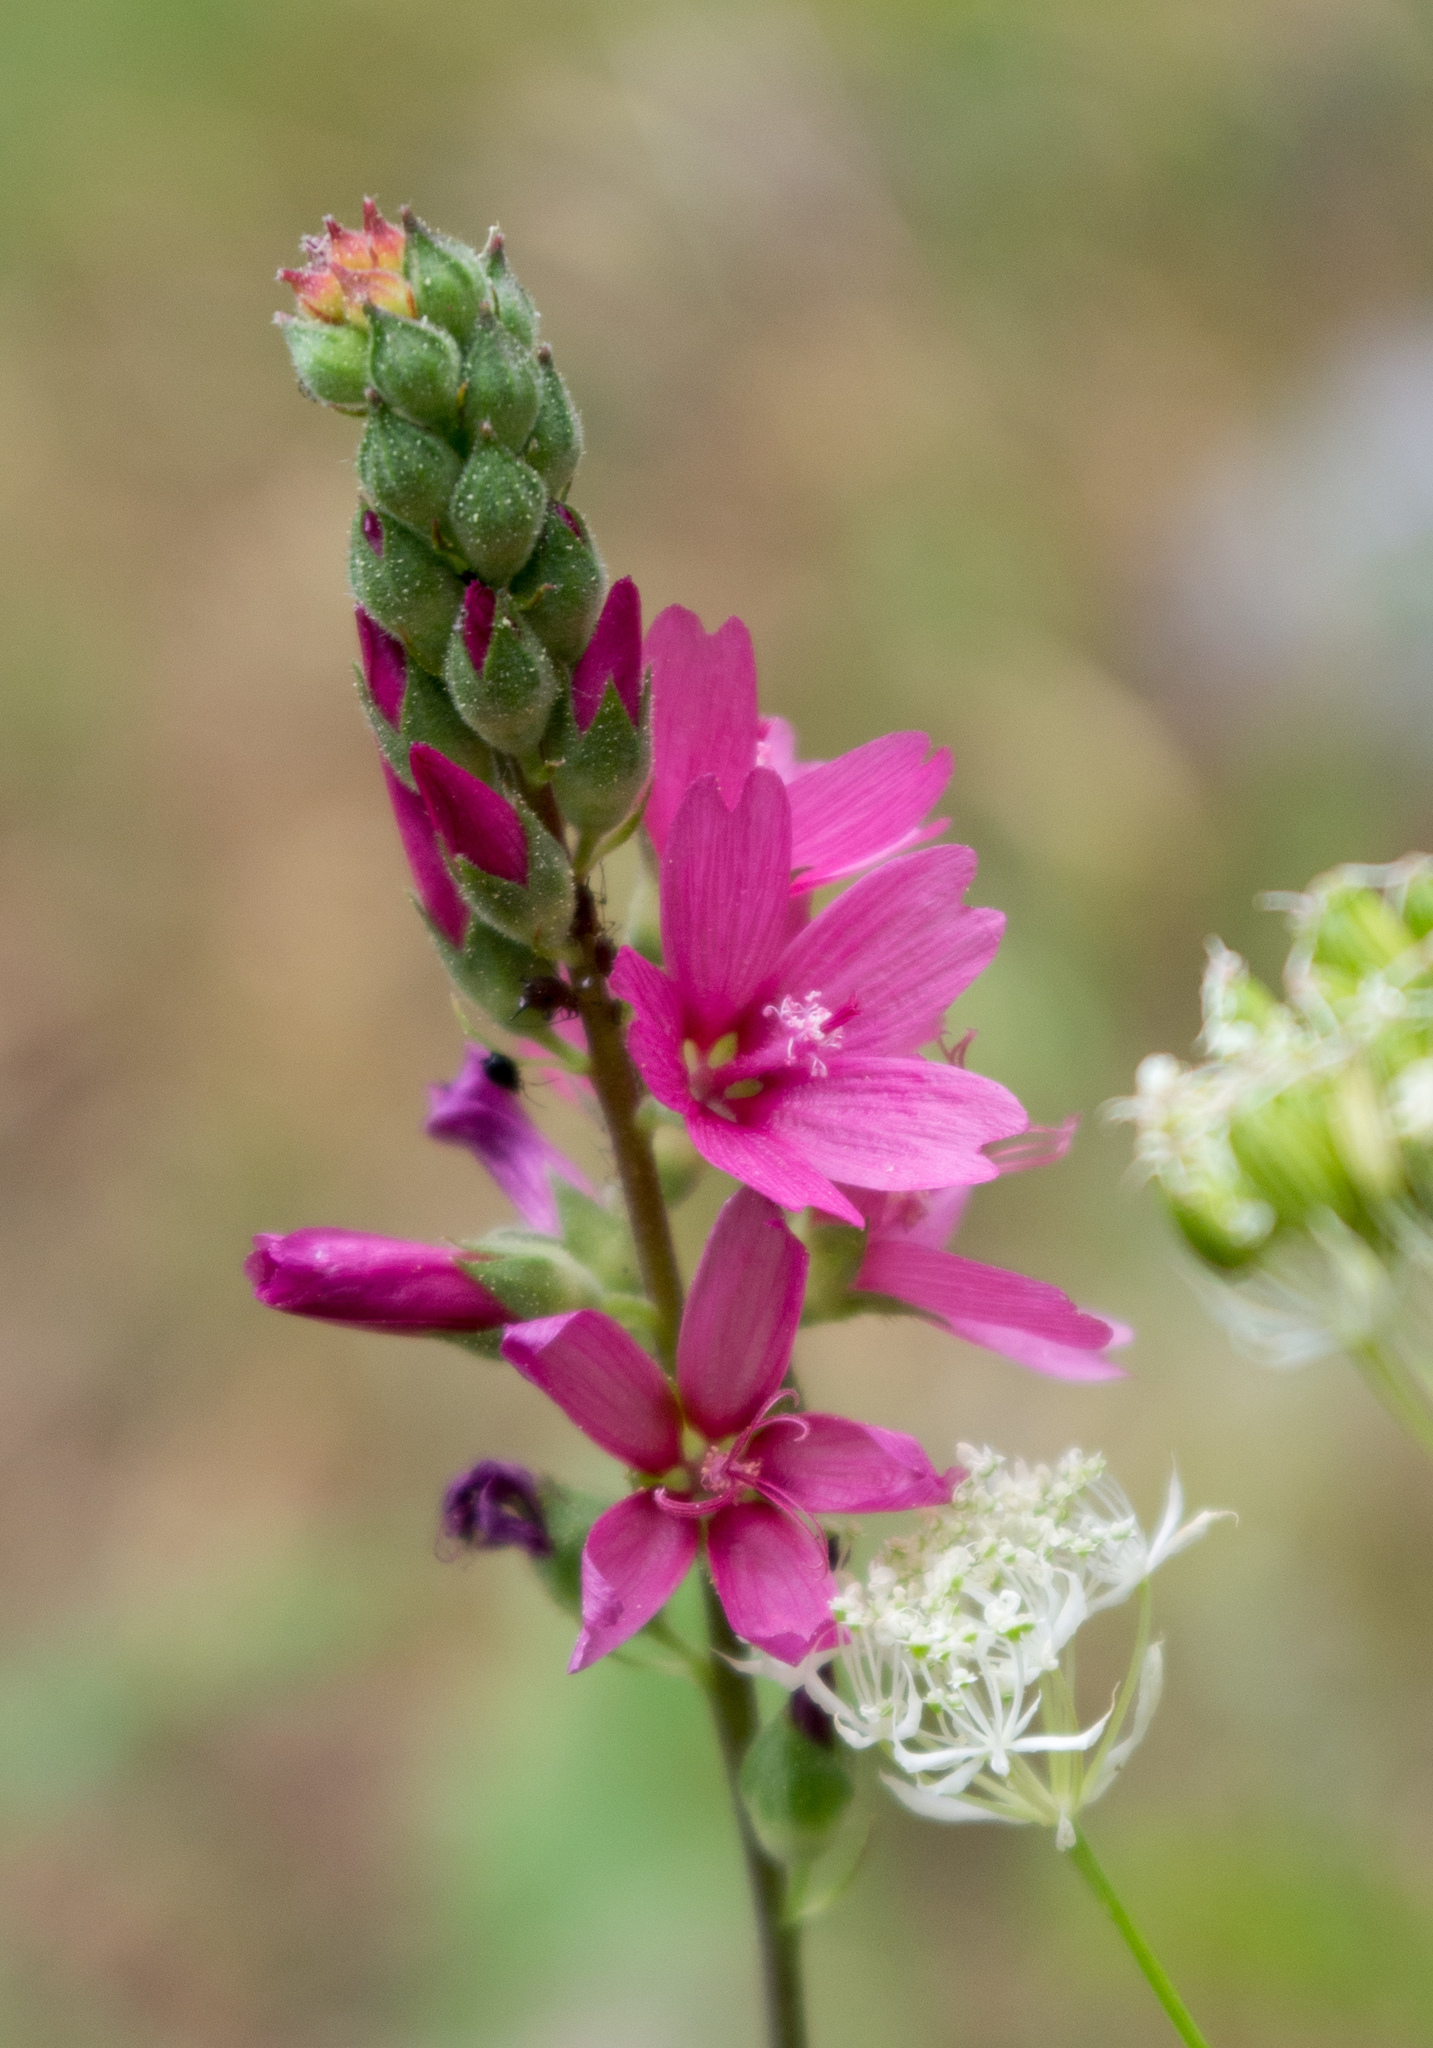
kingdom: Plantae
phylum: Tracheophyta
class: Magnoliopsida
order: Malvales
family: Malvaceae
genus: Sidalcea
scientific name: Sidalcea oregana
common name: Oregon checker-mallow
